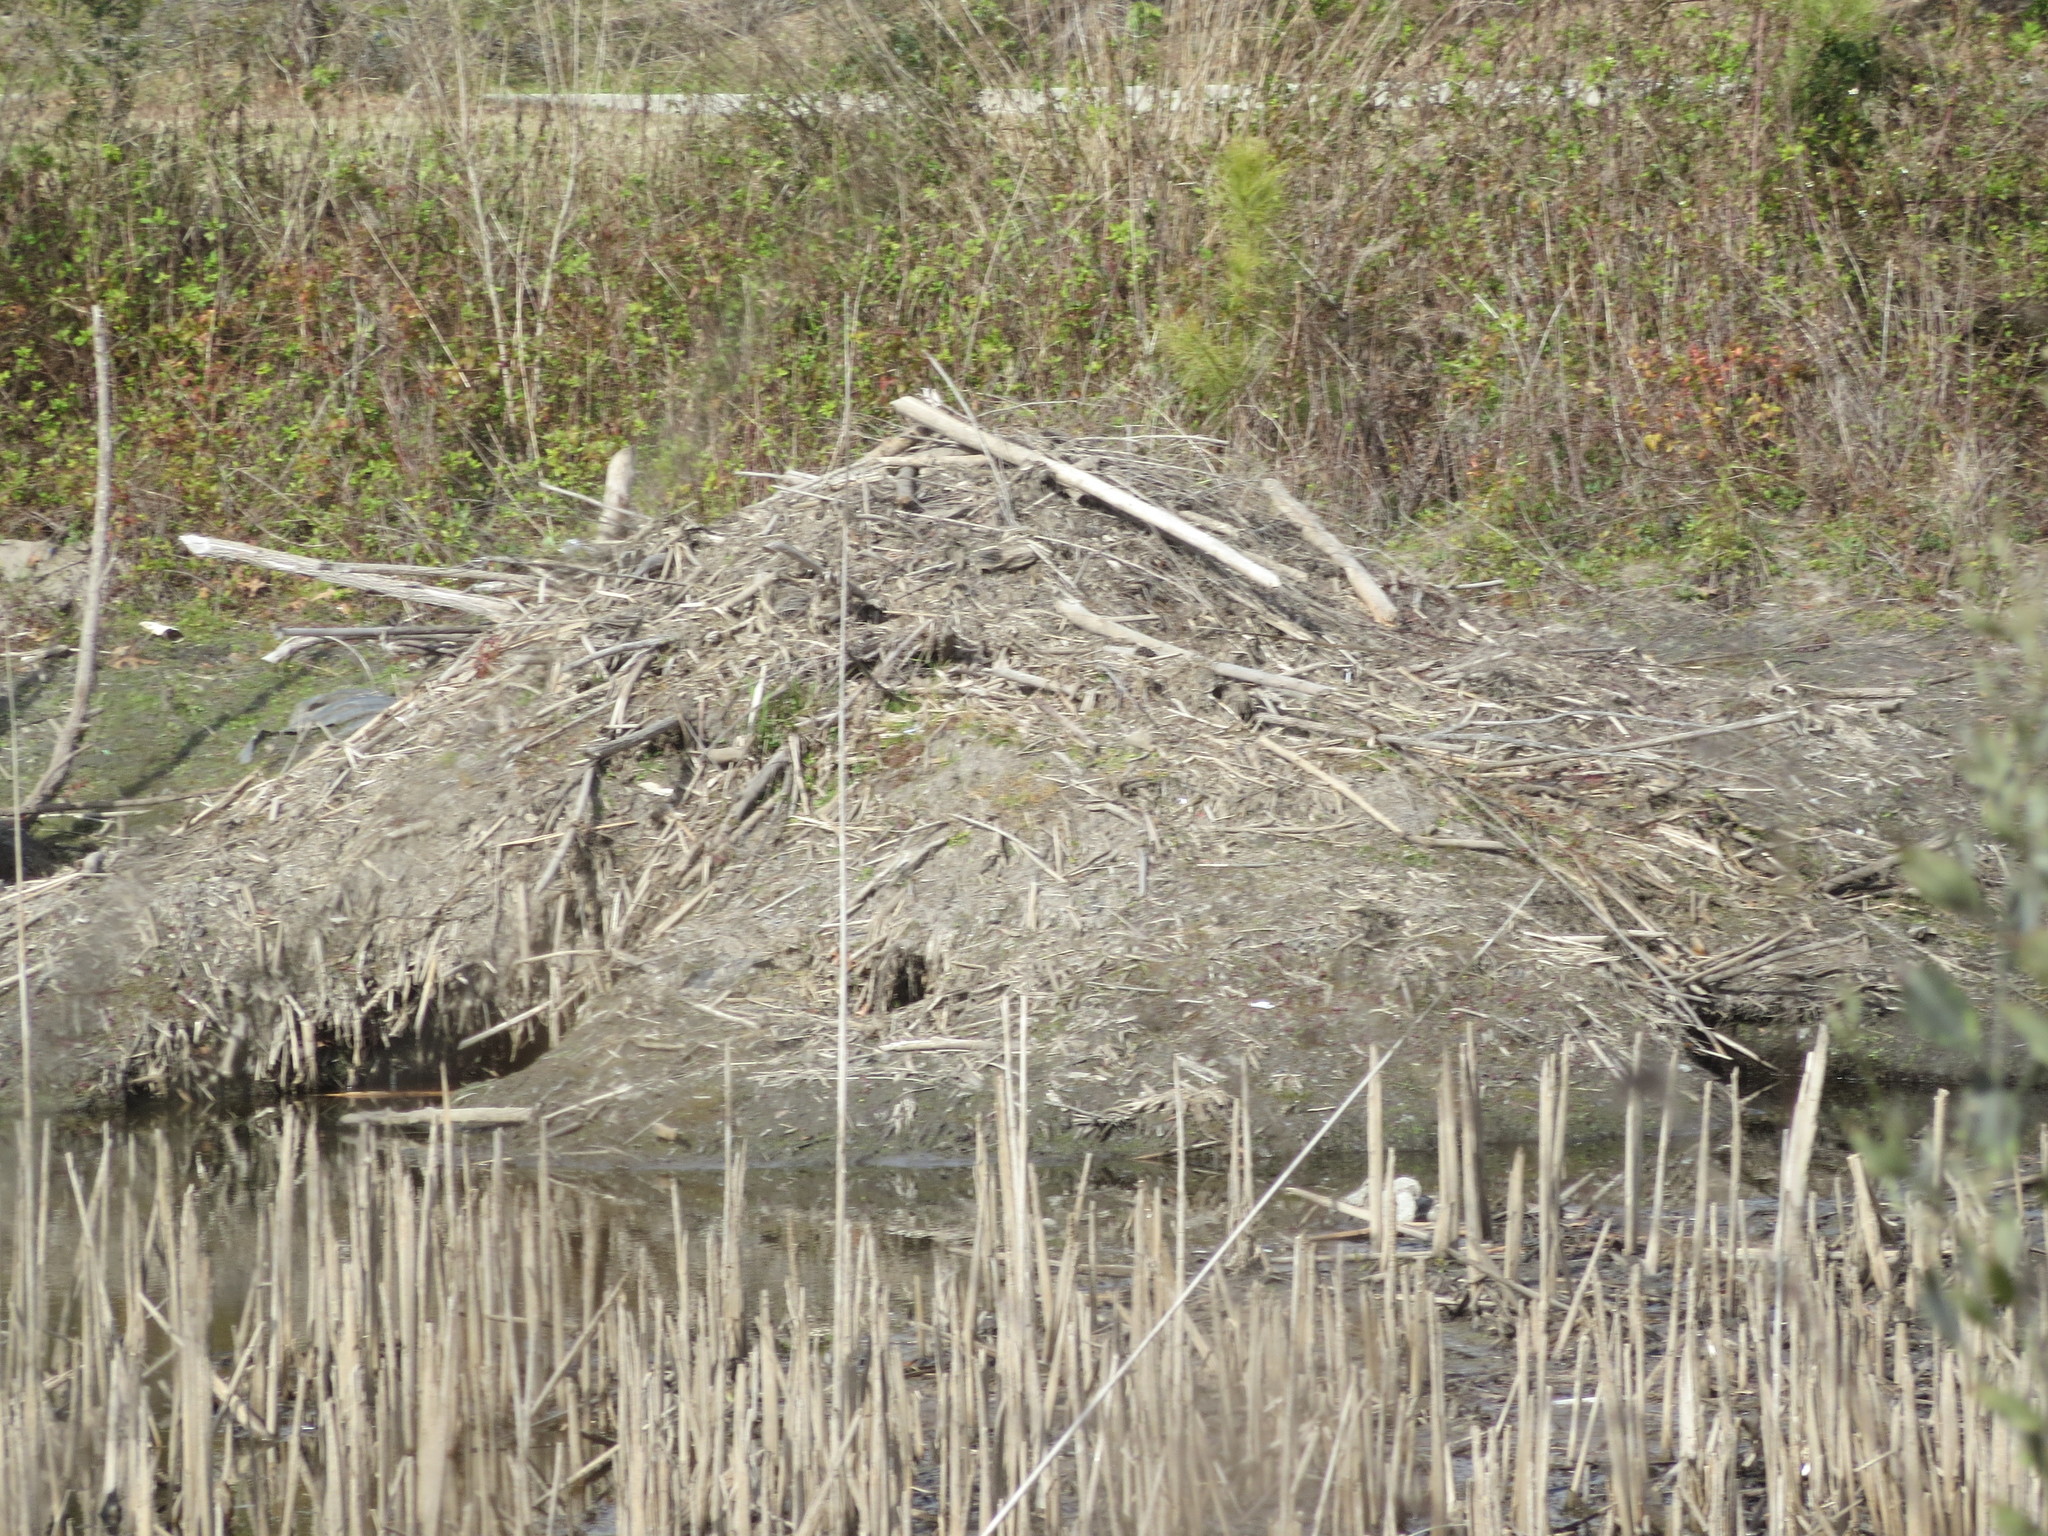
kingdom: Animalia
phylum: Chordata
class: Mammalia
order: Rodentia
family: Castoridae
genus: Castor
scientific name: Castor canadensis
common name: American beaver
